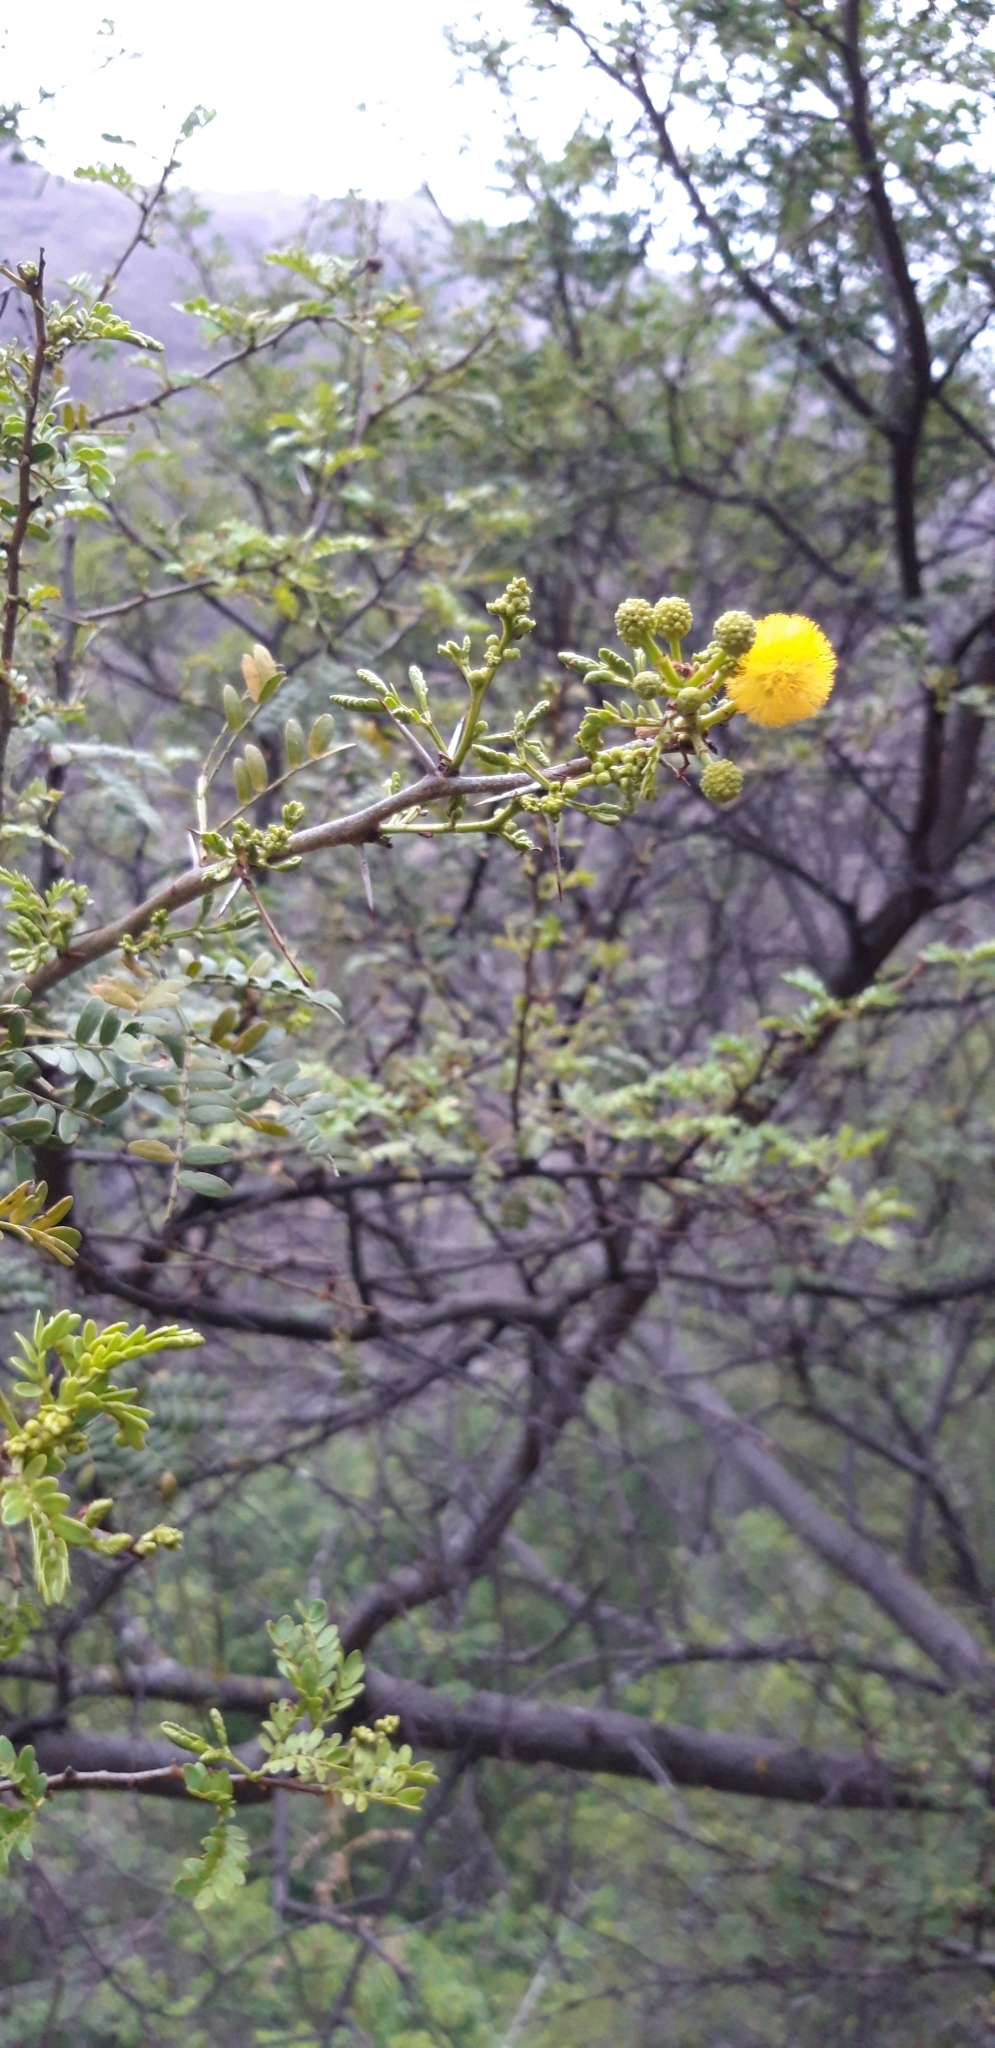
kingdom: Plantae
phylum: Tracheophyta
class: Magnoliopsida
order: Fabales
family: Fabaceae
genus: Vachellia
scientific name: Vachellia karroo
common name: Sweet thorn
